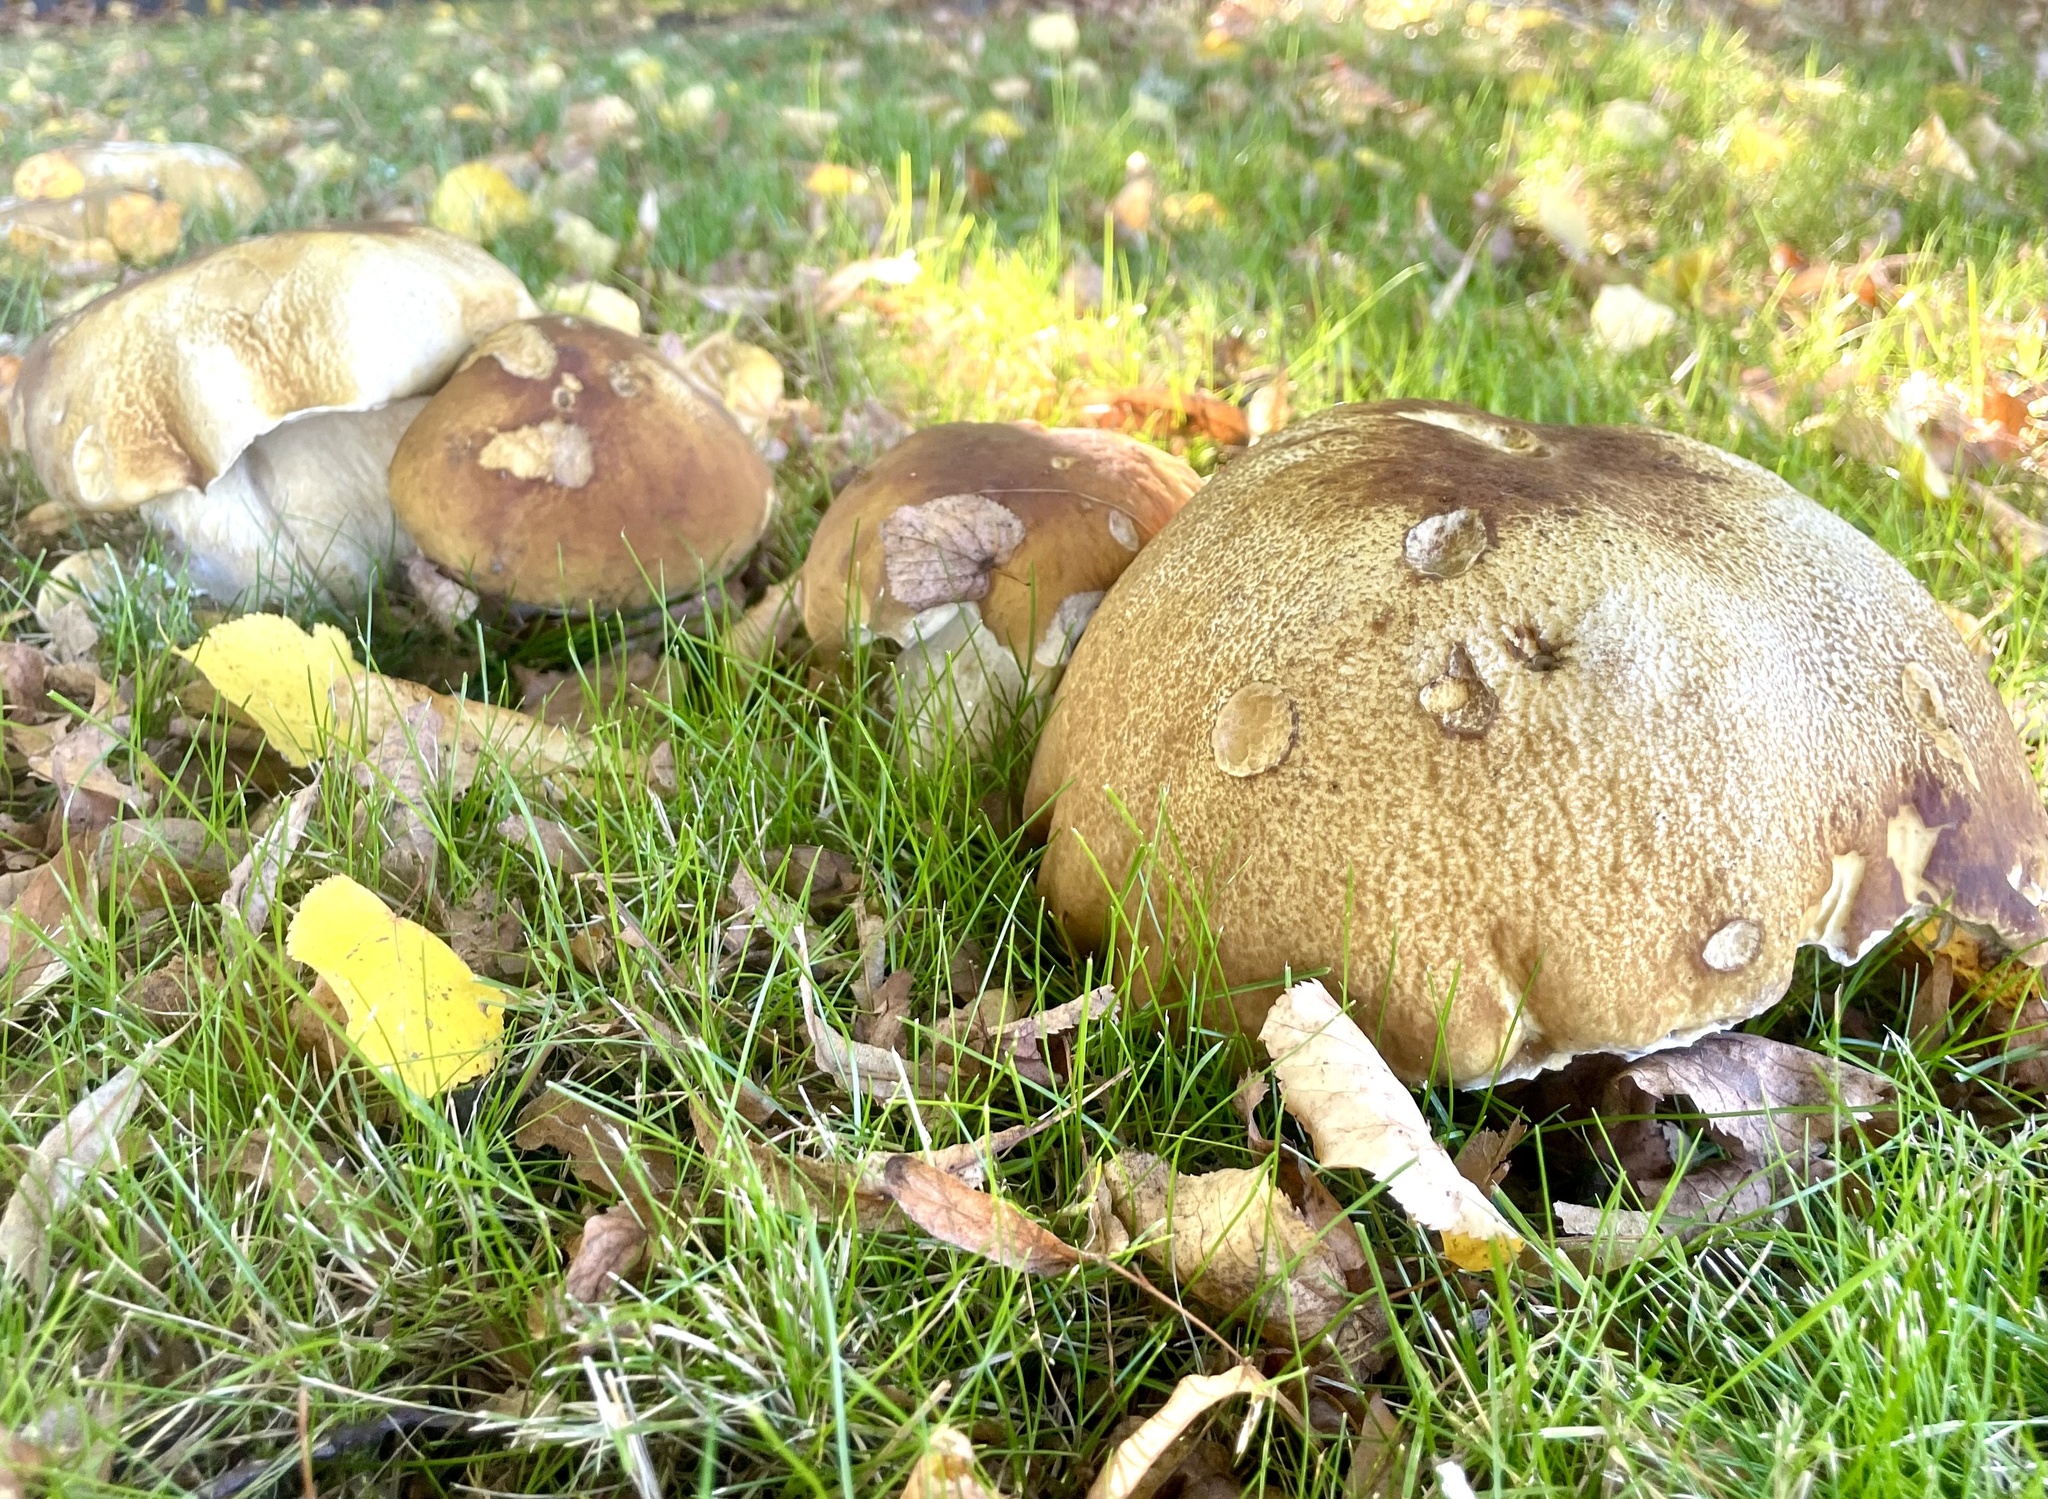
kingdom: Fungi
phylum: Basidiomycota
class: Agaricomycetes
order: Boletales
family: Boletaceae
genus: Boletus
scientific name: Boletus edulis
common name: Cep
